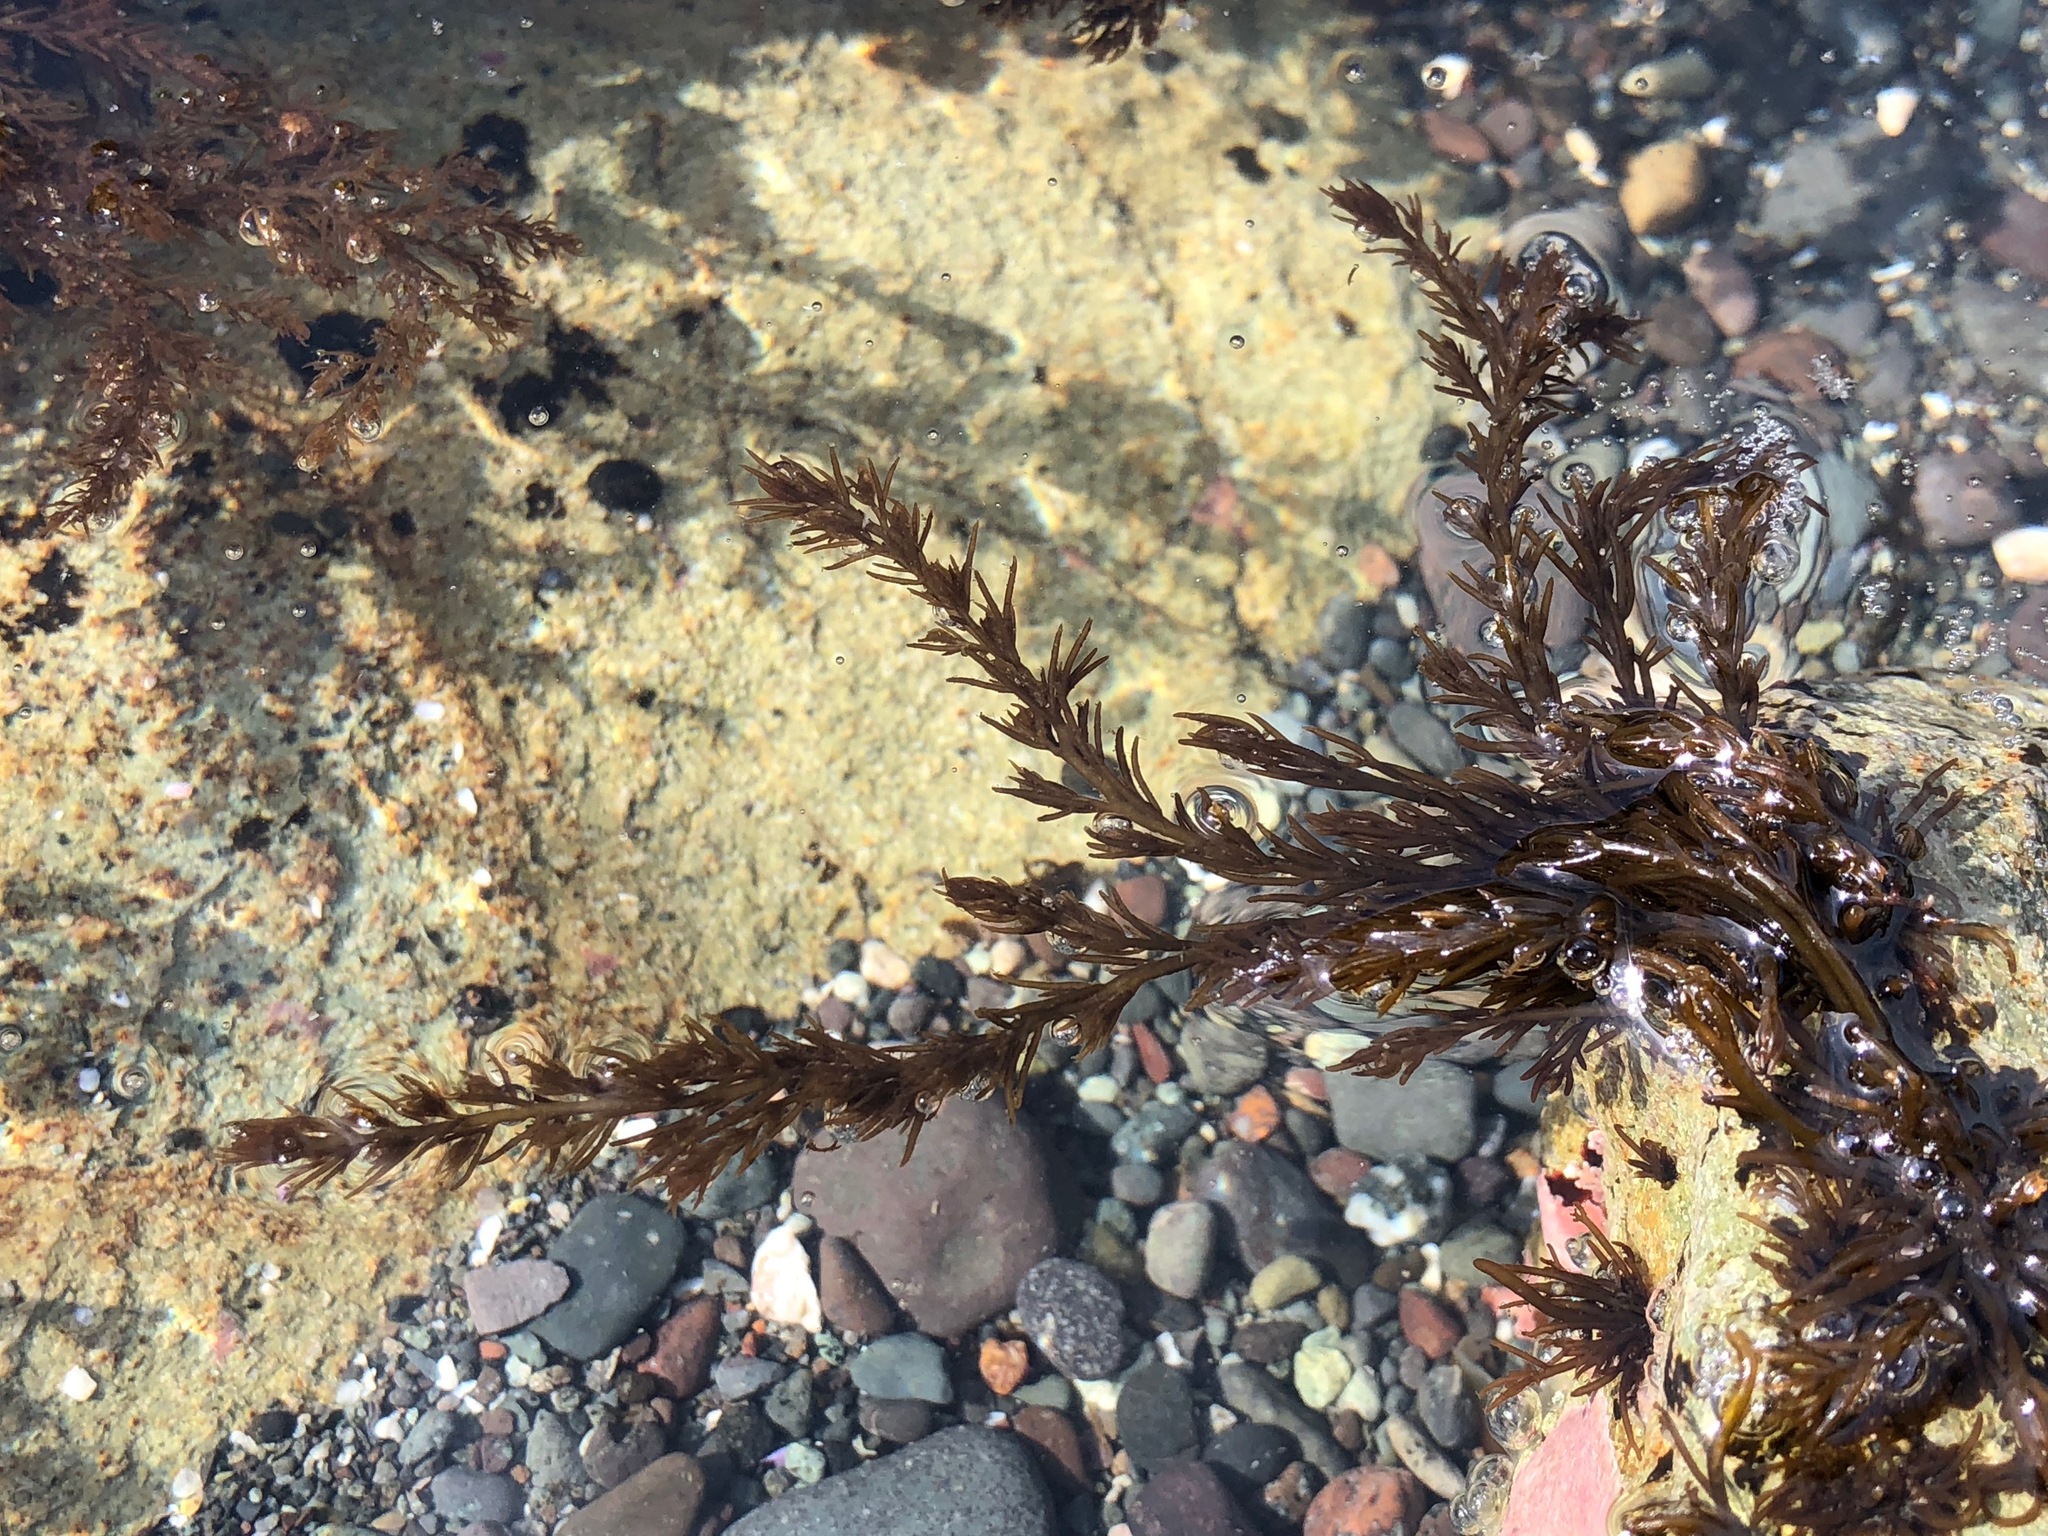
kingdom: Plantae
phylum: Rhodophyta
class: Florideophyceae
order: Ceramiales
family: Rhodomelaceae
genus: Neorhodomela
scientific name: Neorhodomela larix
